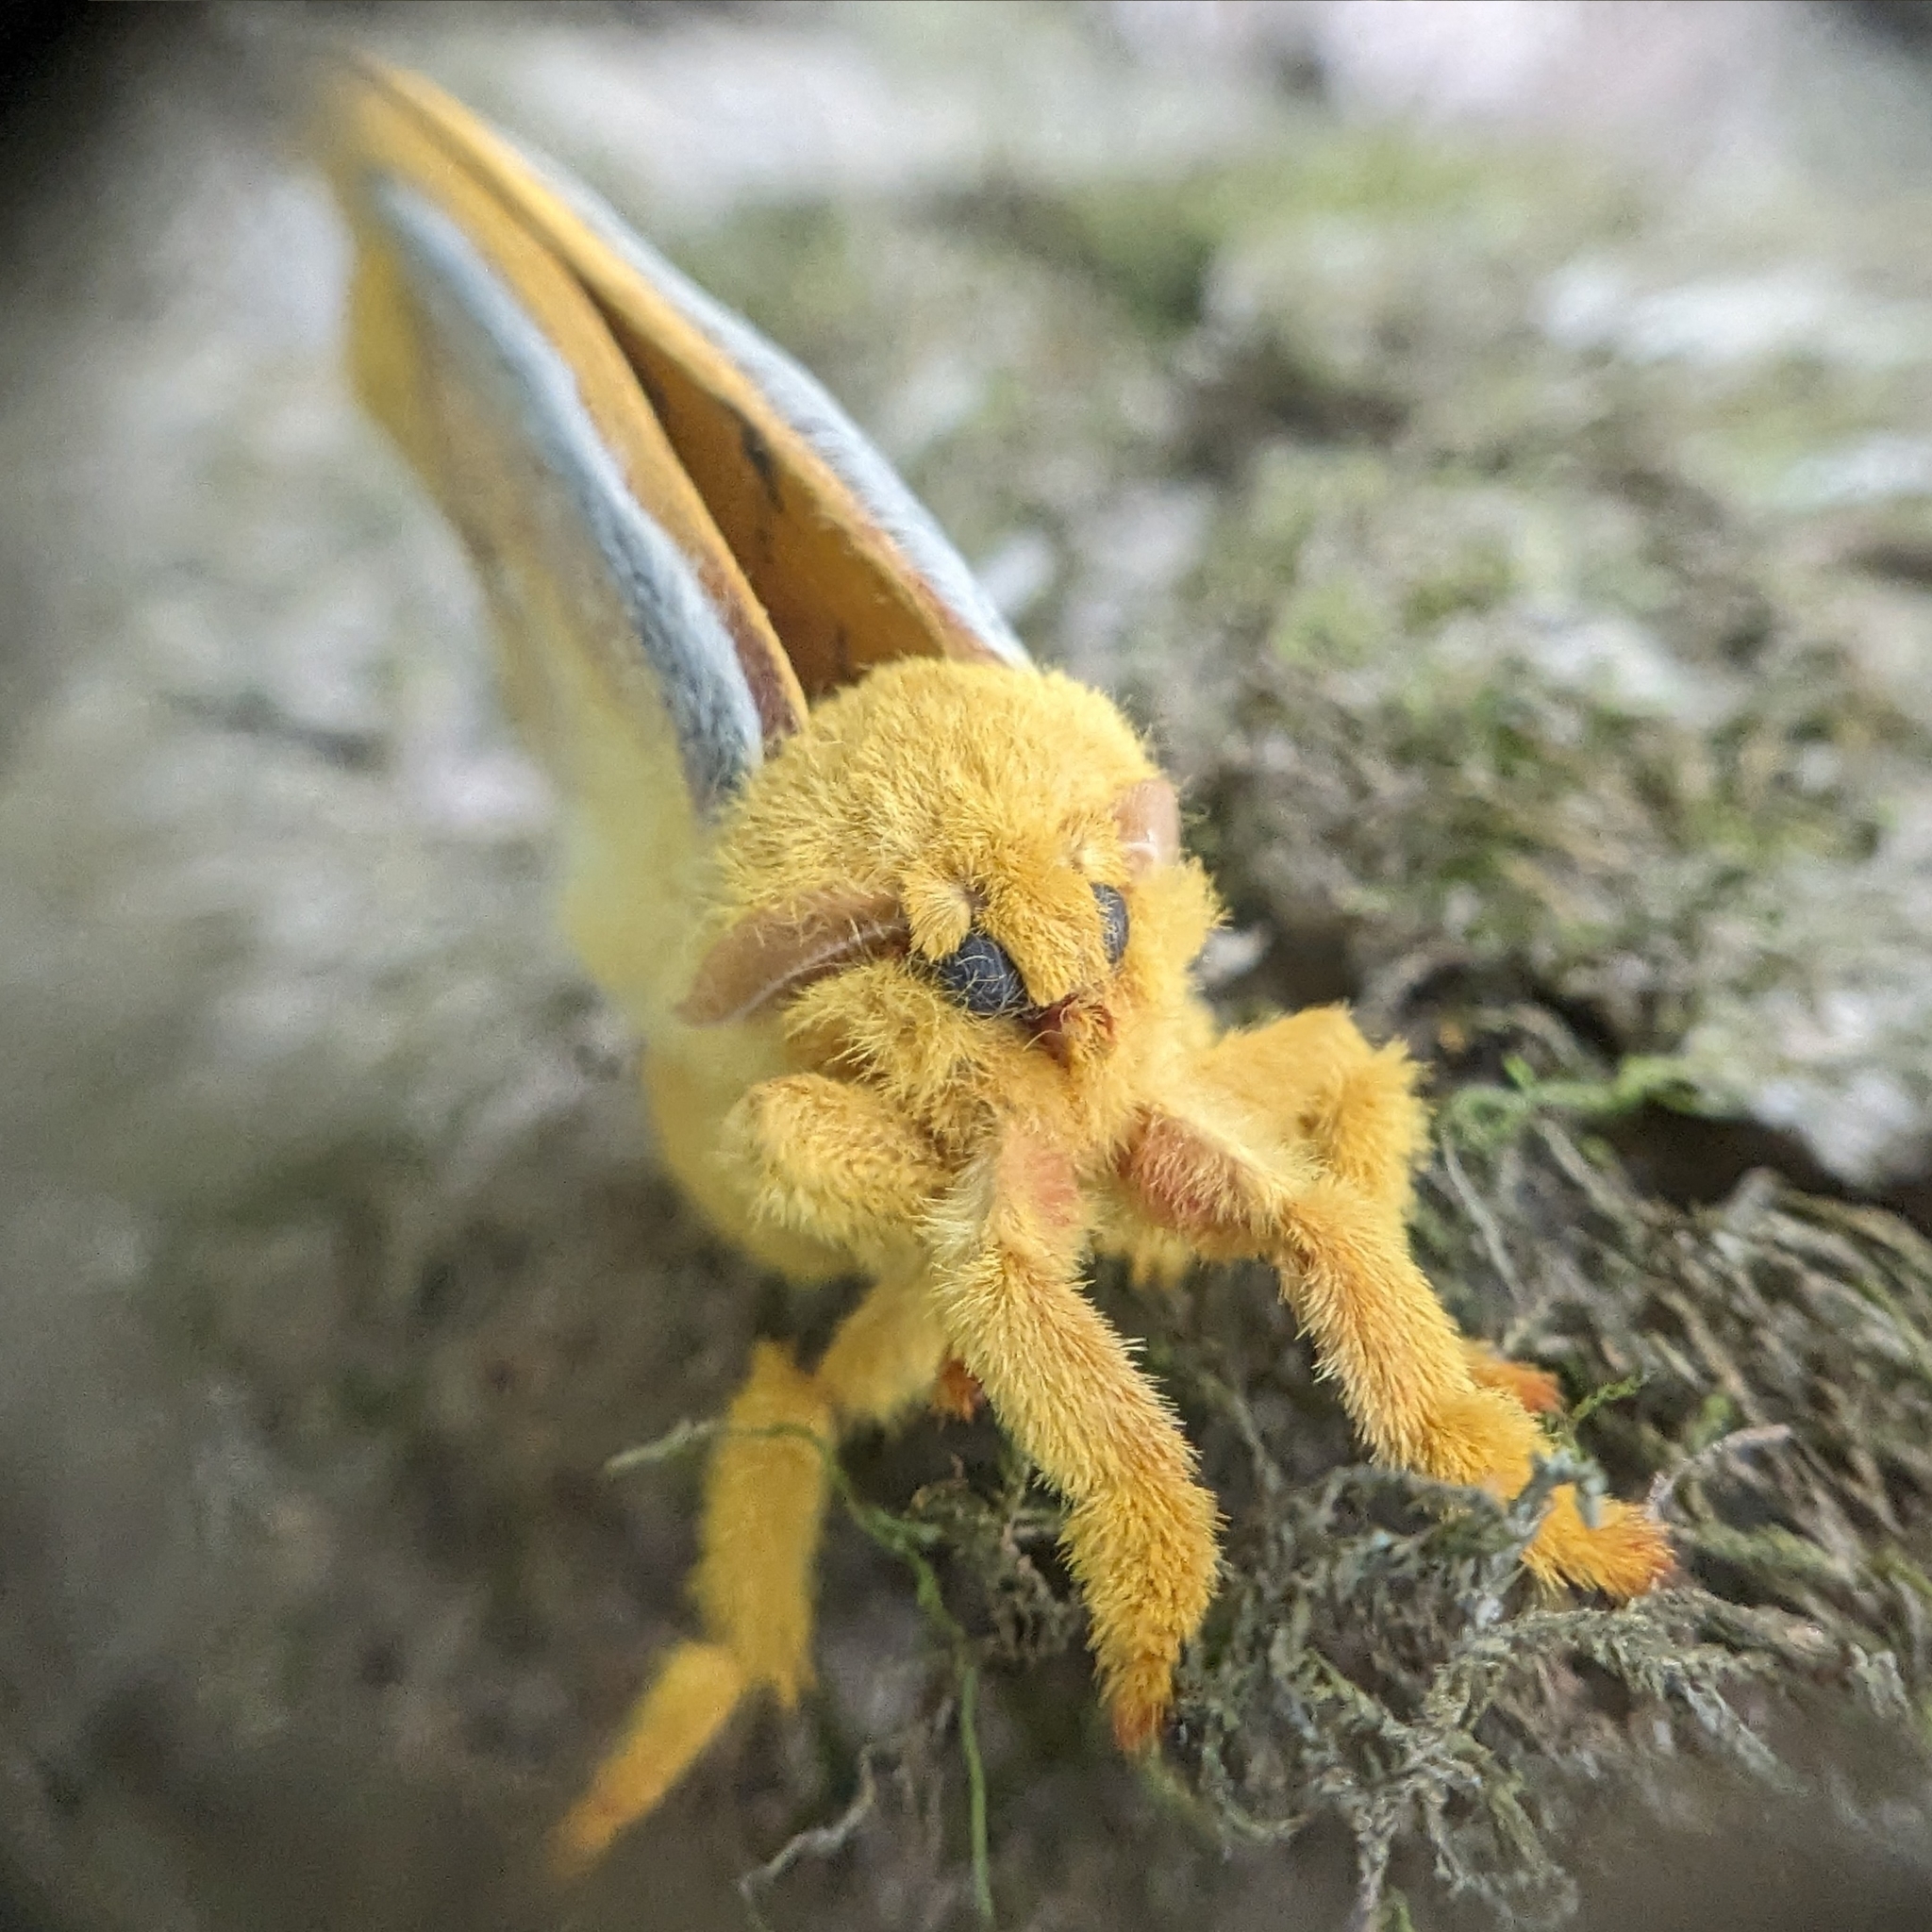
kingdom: Animalia
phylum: Arthropoda
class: Insecta
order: Lepidoptera
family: Saturniidae
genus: Automeris
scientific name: Automeris io
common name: Io moth
